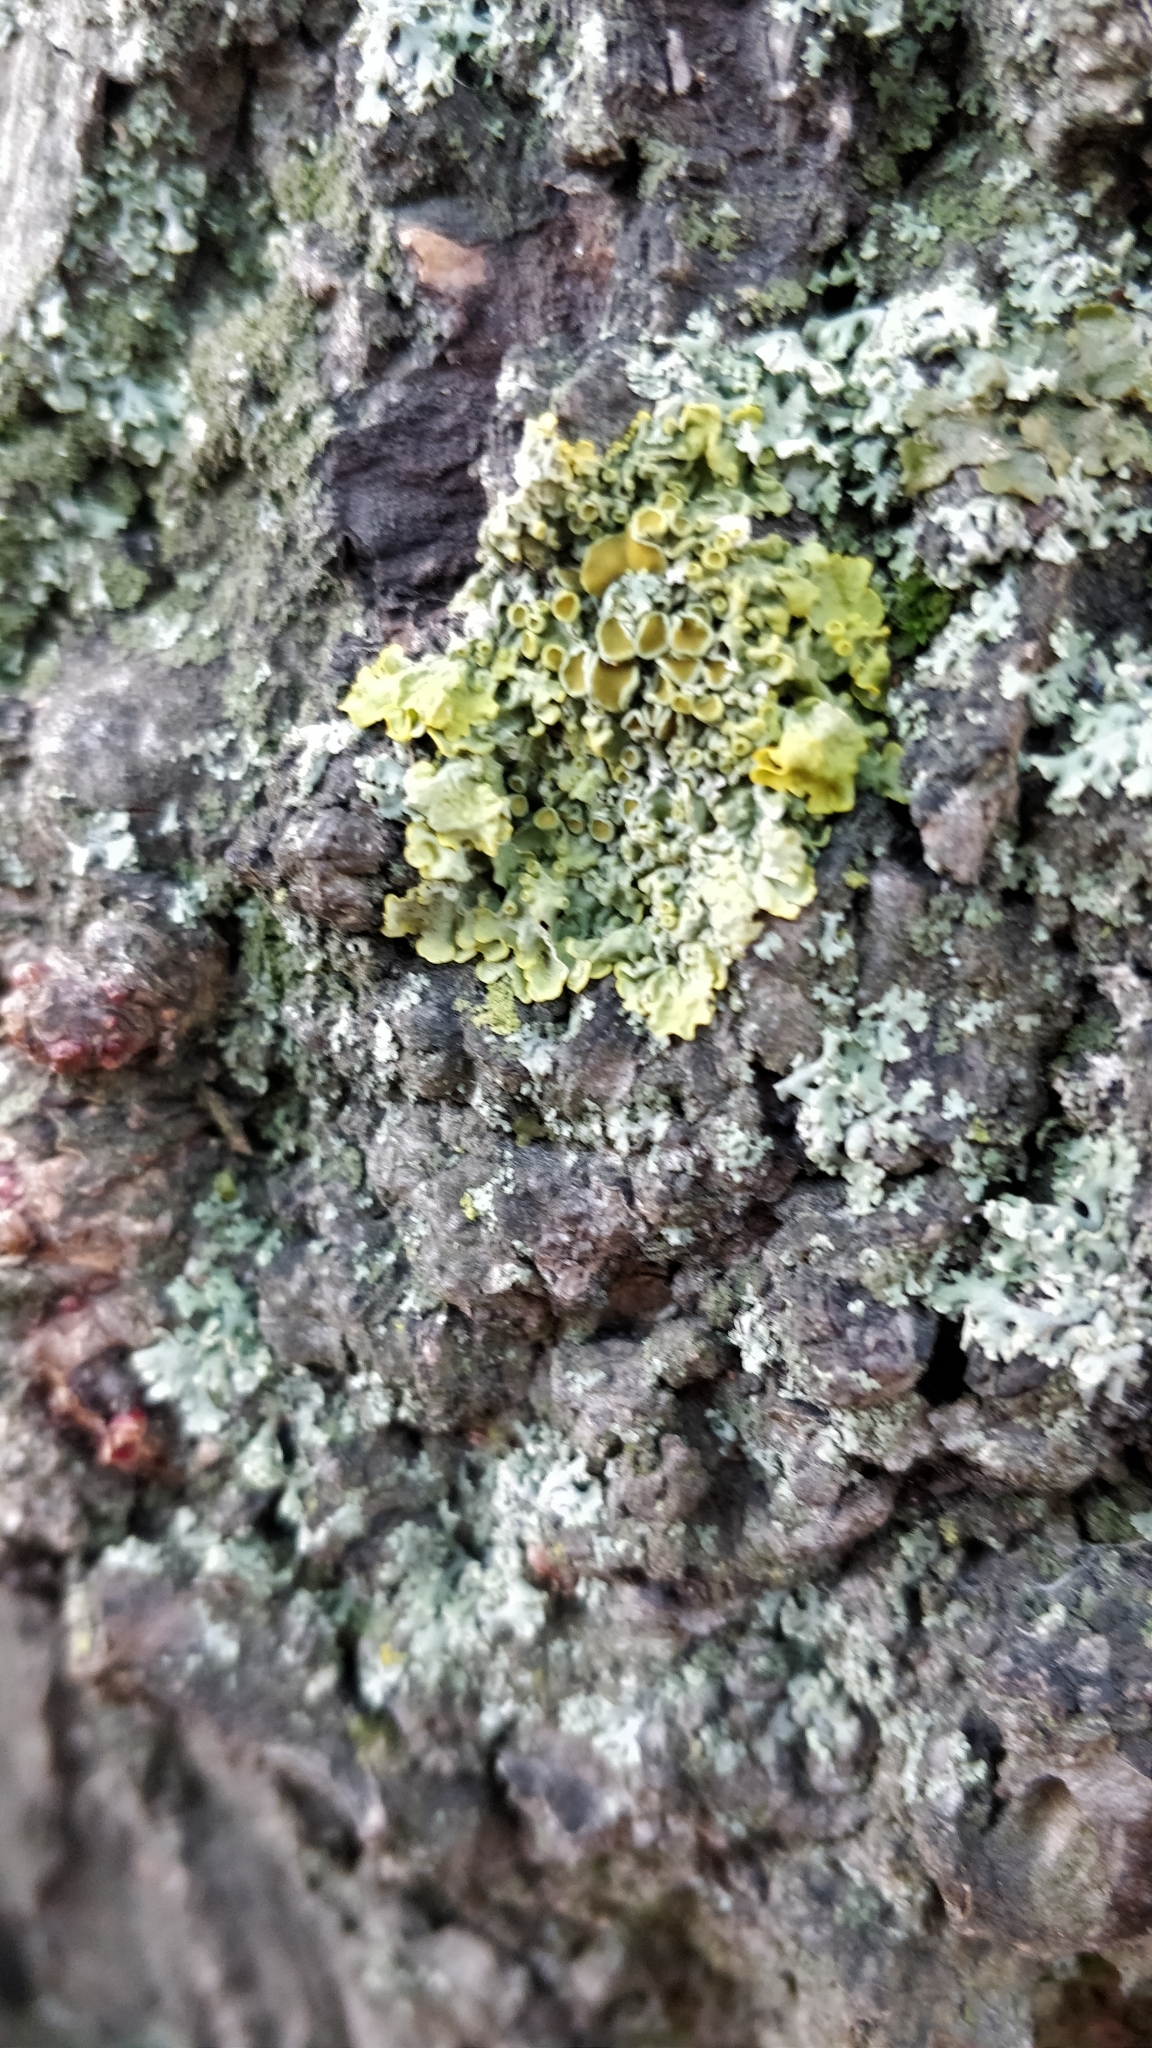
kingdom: Fungi
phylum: Ascomycota
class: Lecanoromycetes
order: Teloschistales
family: Teloschistaceae
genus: Xanthoria
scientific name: Xanthoria parietina
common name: Common orange lichen
